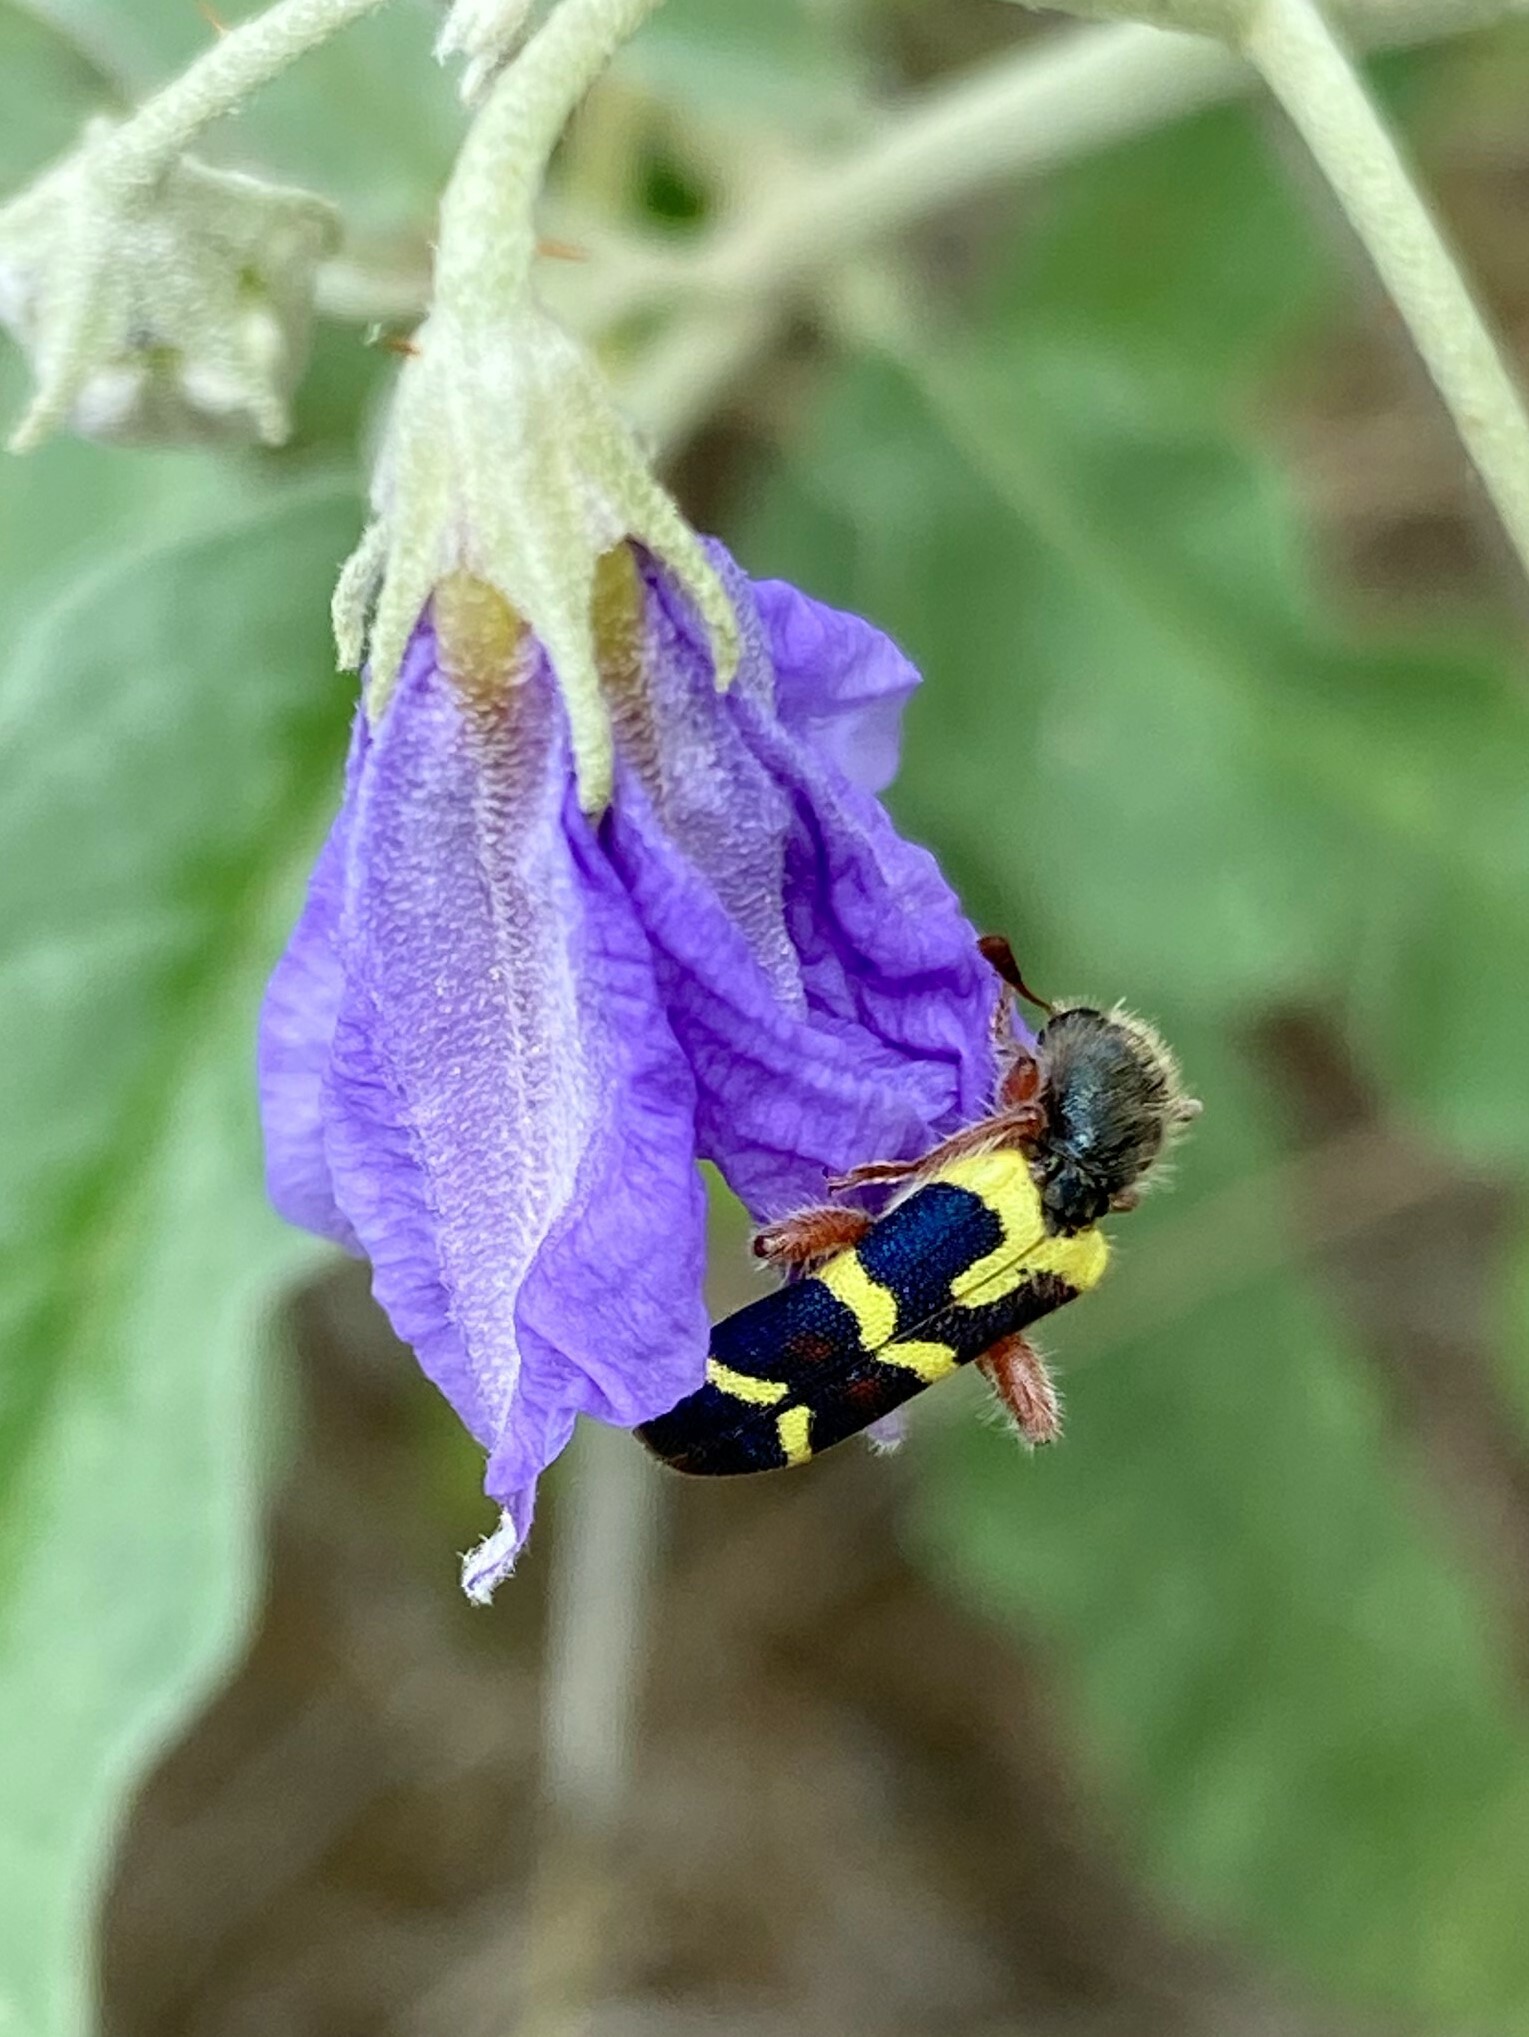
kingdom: Animalia
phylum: Arthropoda
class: Insecta
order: Coleoptera
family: Cleridae
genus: Trichodes
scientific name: Trichodes peninsularis
